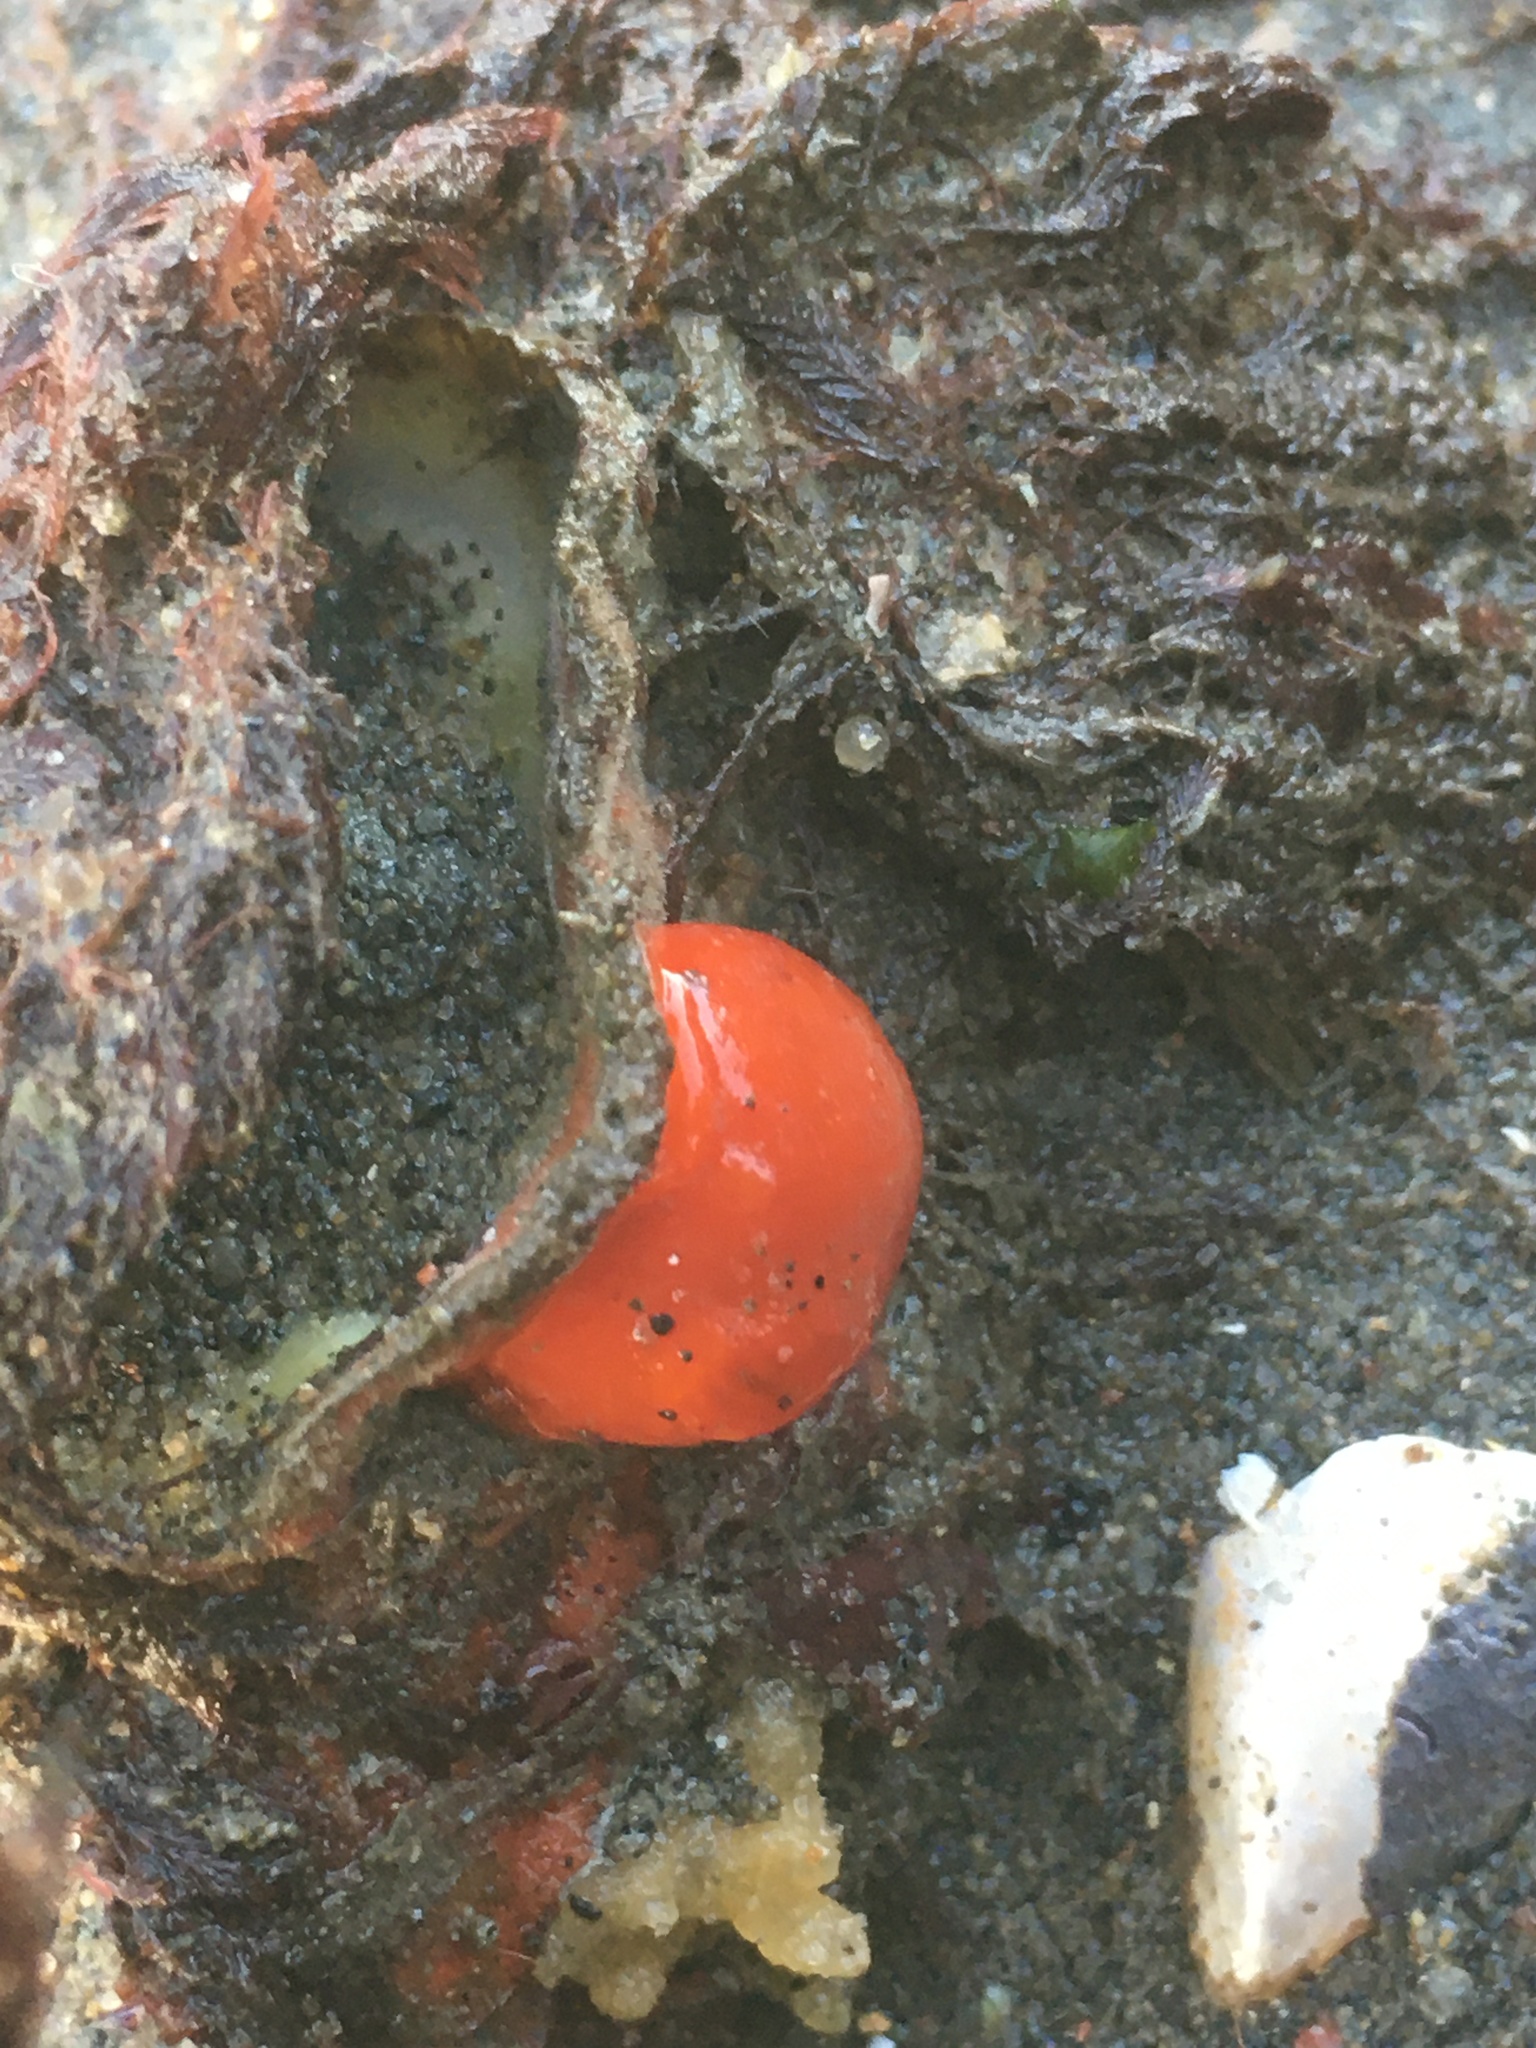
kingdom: Animalia
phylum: Mollusca
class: Gastropoda
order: Nudibranchia
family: Discodorididae
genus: Rostanga
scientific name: Rostanga pulchra
